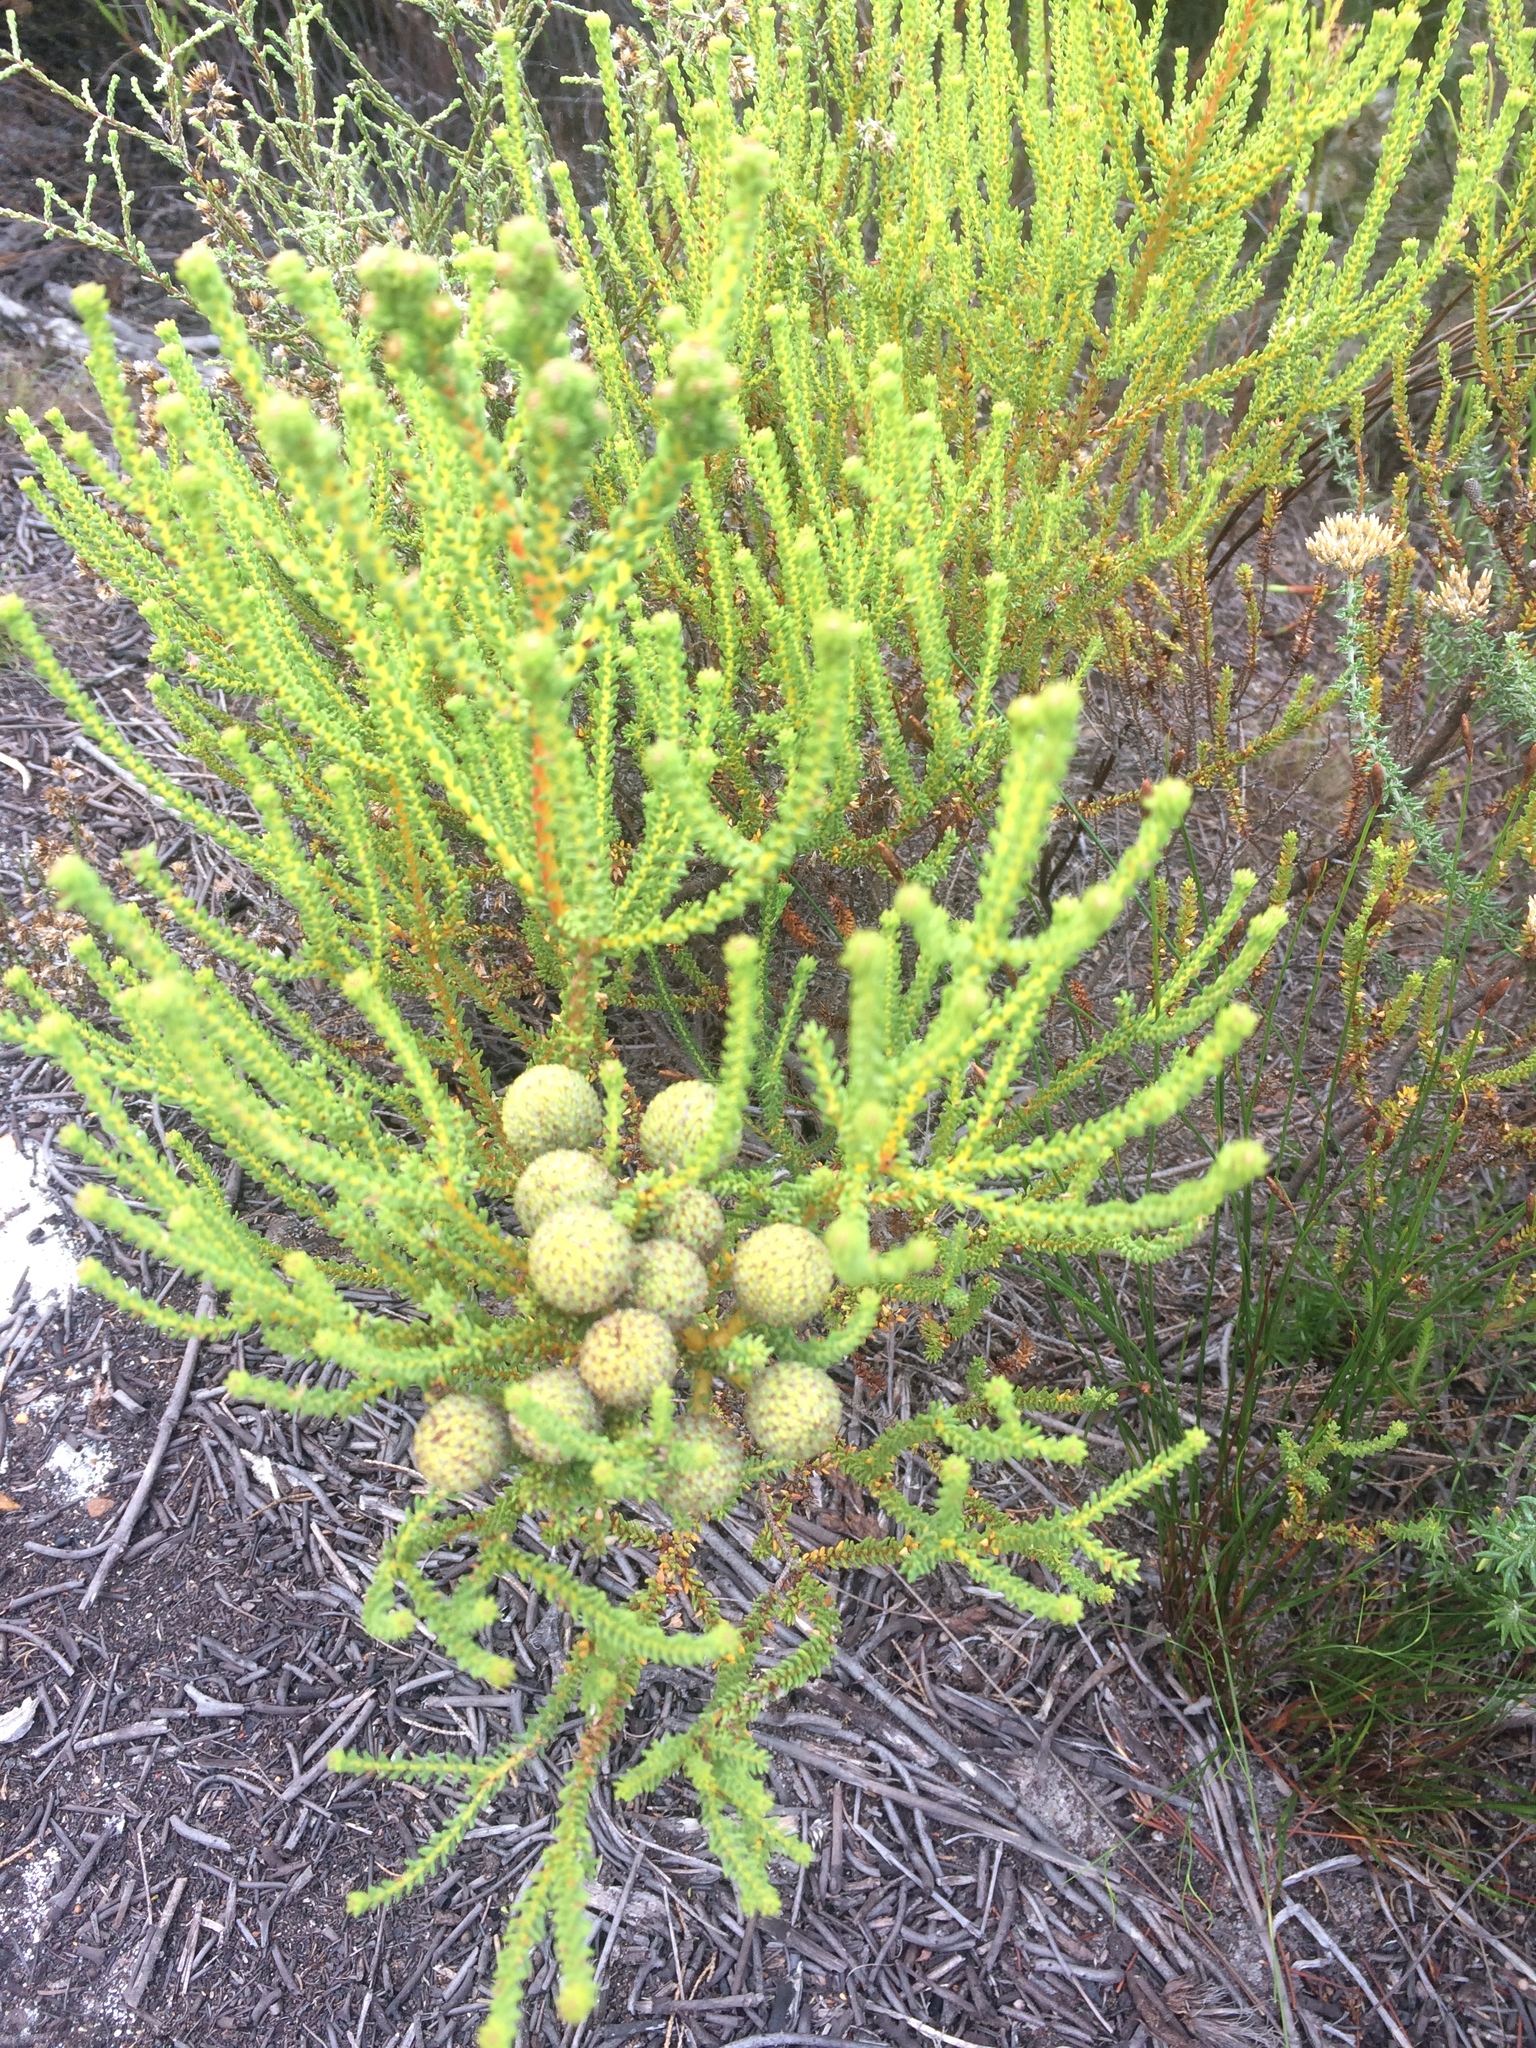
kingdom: Plantae
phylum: Tracheophyta
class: Magnoliopsida
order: Bruniales
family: Bruniaceae
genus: Berzelia
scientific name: Berzelia abrotanoides
